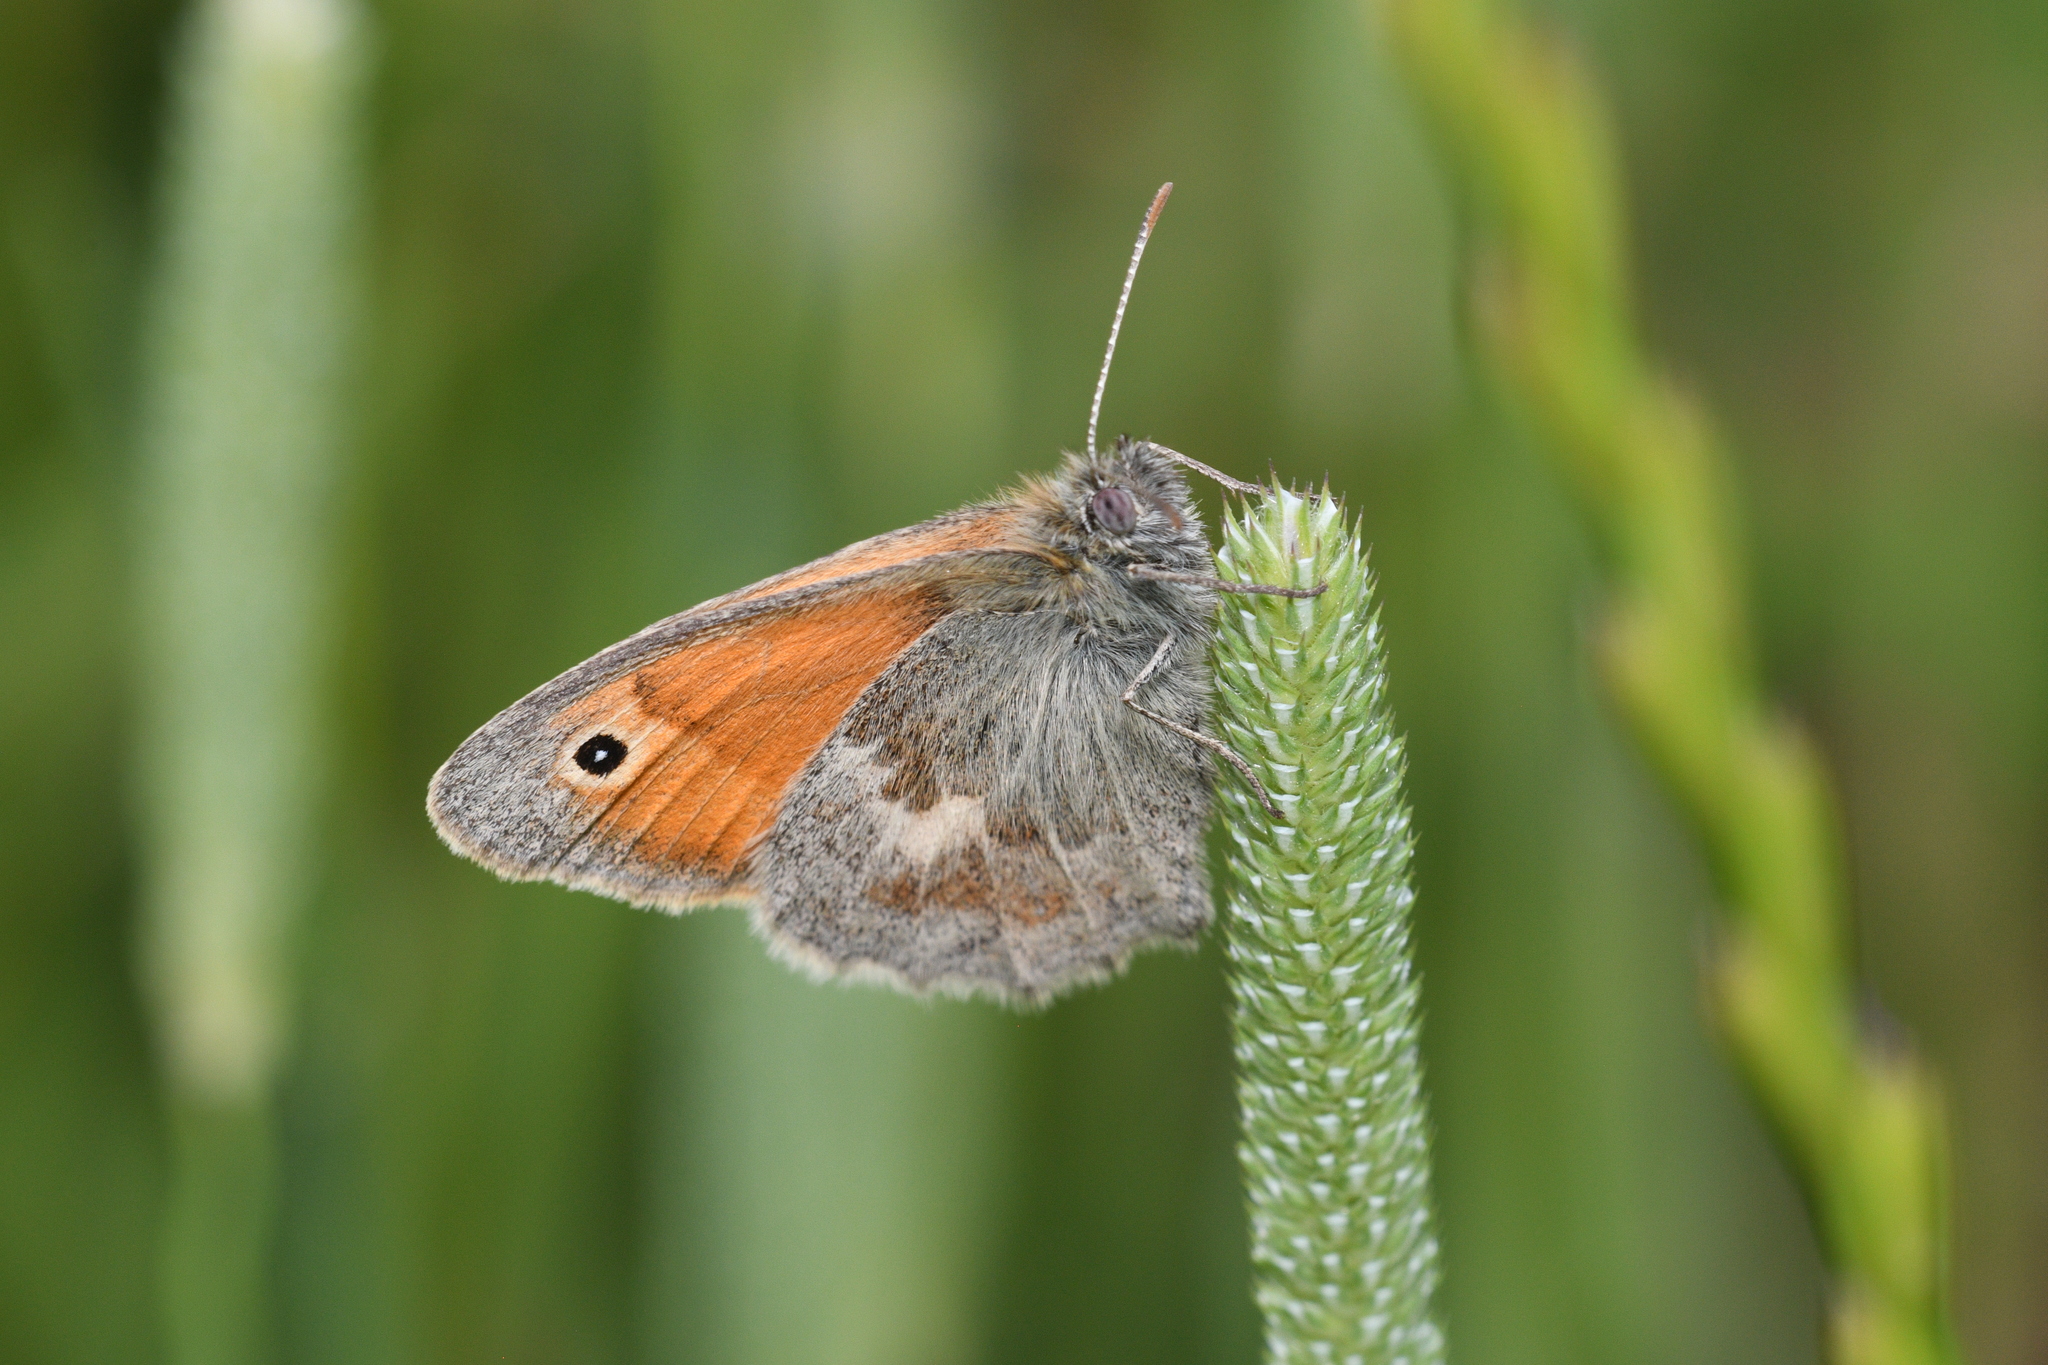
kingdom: Animalia
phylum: Arthropoda
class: Insecta
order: Lepidoptera
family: Nymphalidae
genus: Coenonympha
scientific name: Coenonympha pamphilus
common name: Small heath
